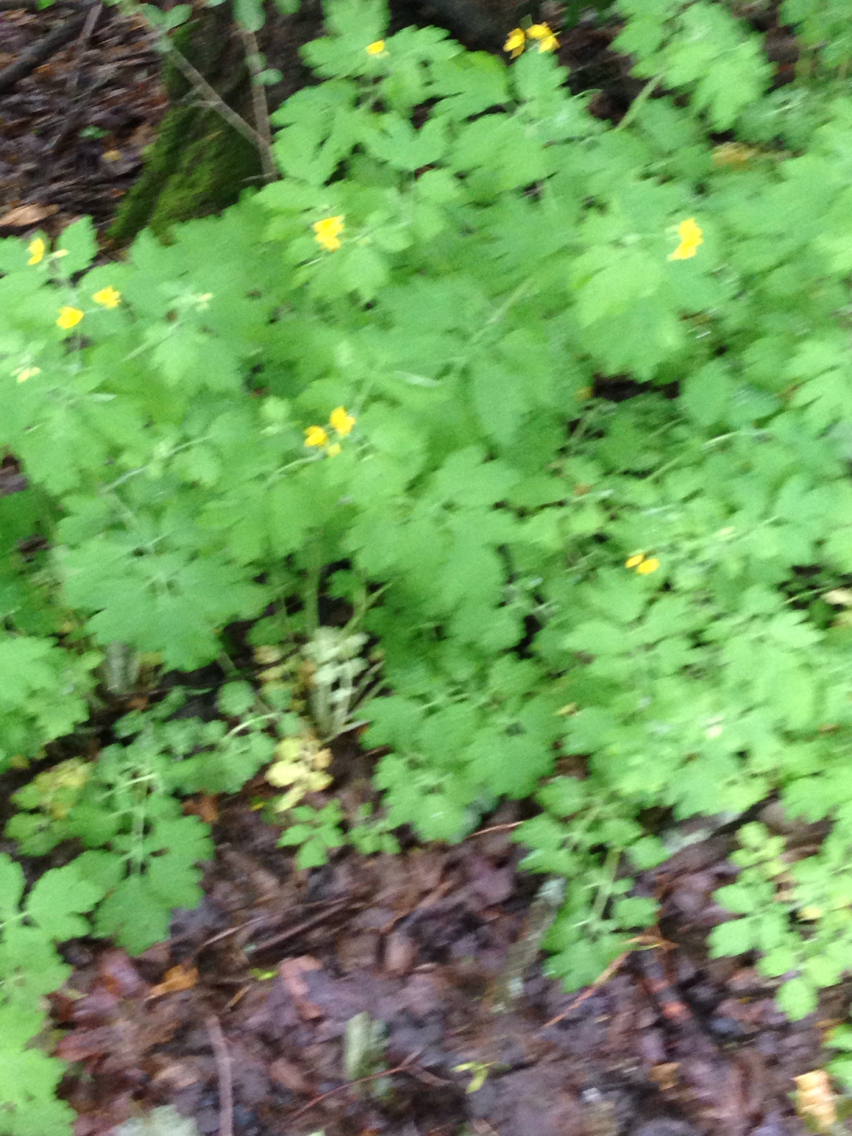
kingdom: Plantae
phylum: Tracheophyta
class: Magnoliopsida
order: Ranunculales
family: Papaveraceae
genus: Chelidonium
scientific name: Chelidonium majus
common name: Greater celandine
